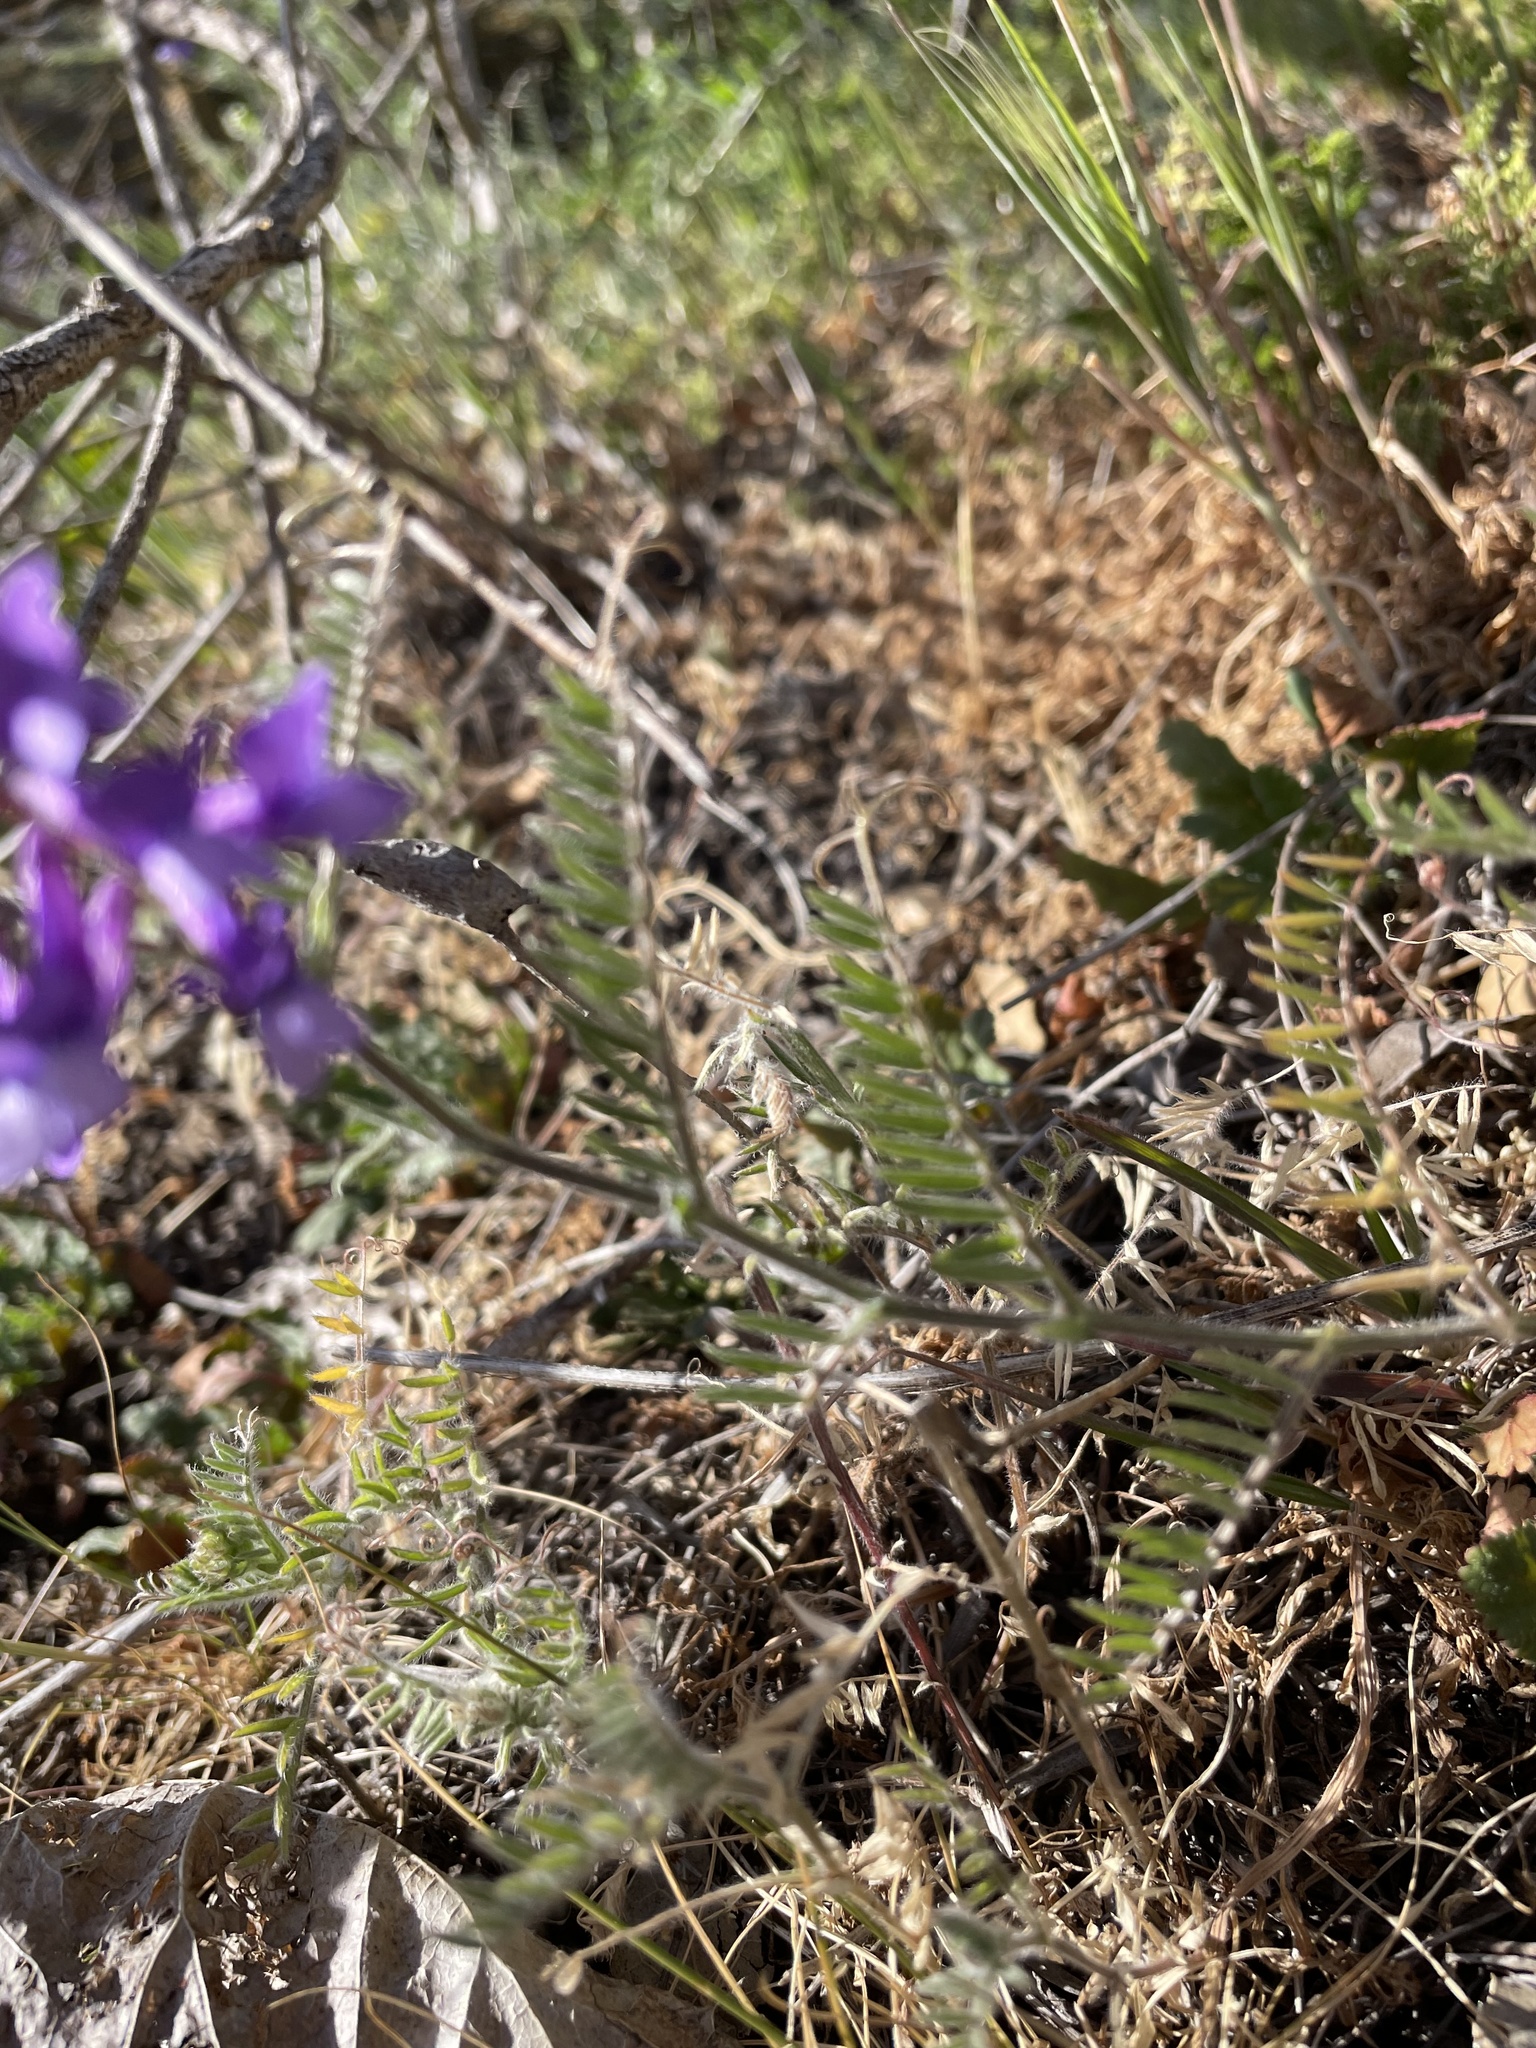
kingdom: Plantae
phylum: Tracheophyta
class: Magnoliopsida
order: Fabales
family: Fabaceae
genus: Vicia
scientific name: Vicia villosa
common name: Fodder vetch
